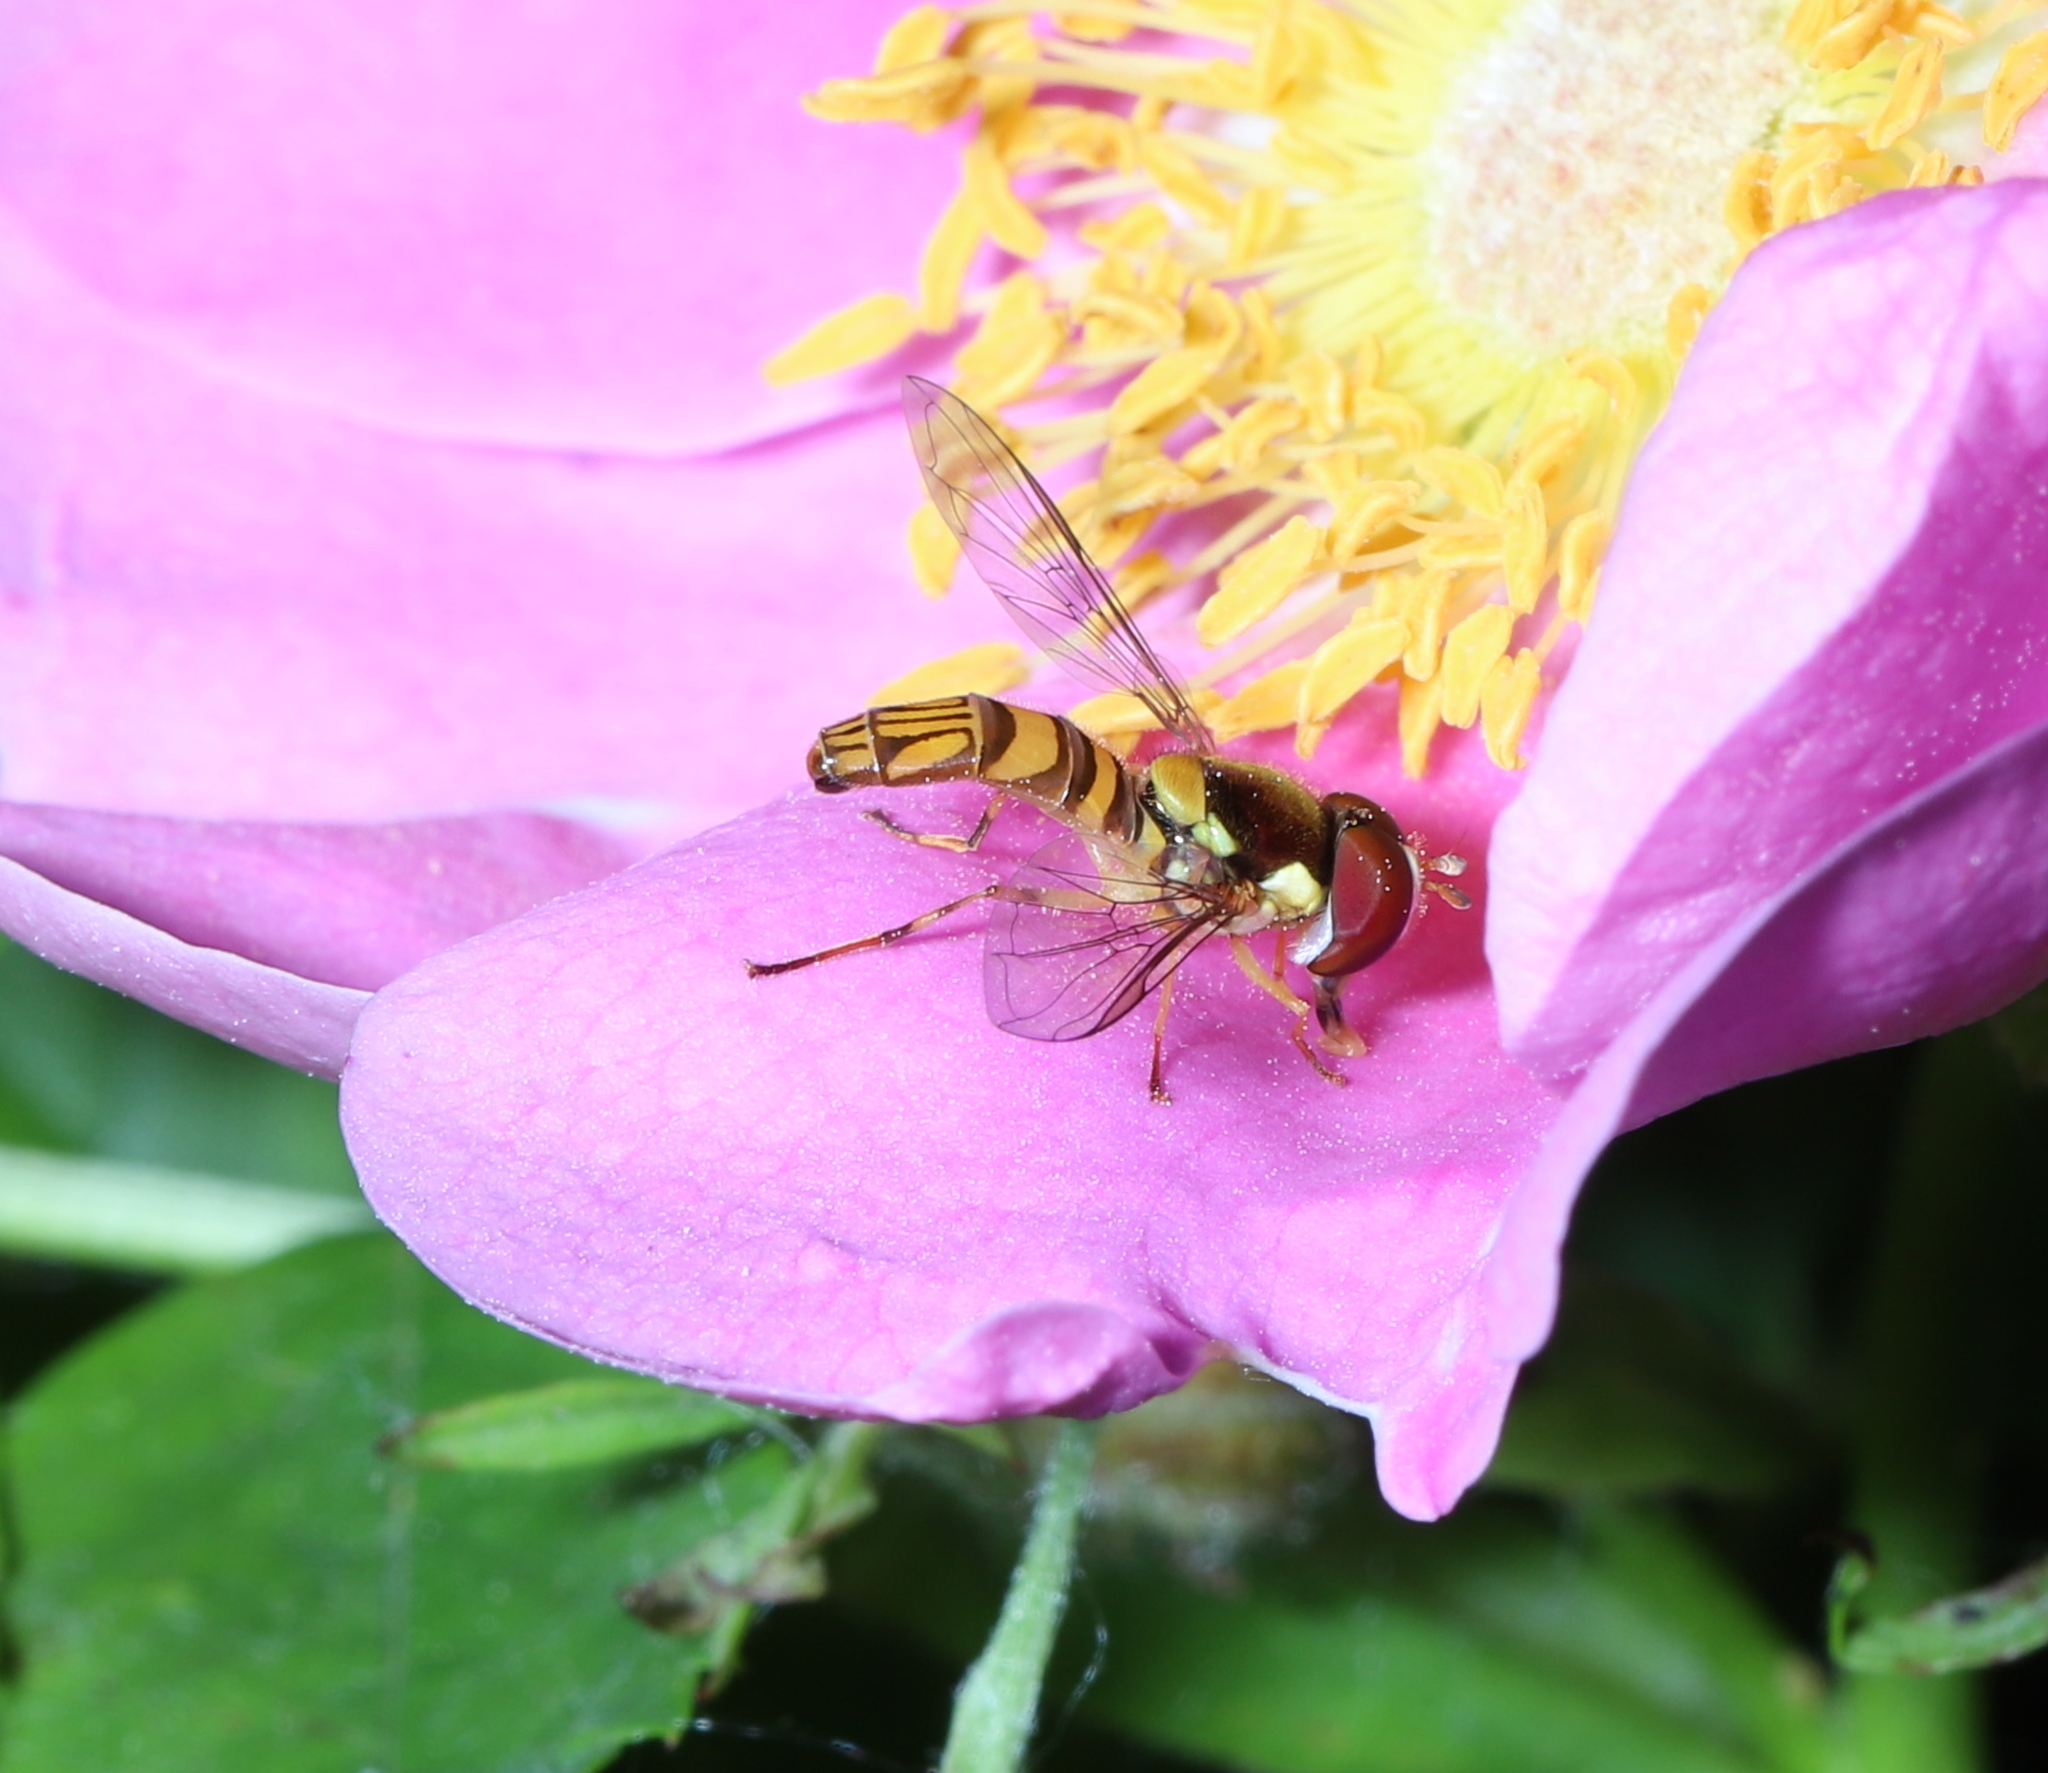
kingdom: Animalia
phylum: Arthropoda
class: Insecta
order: Diptera
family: Syrphidae
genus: Allograpta
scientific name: Allograpta obliqua
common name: Common oblique syrphid
